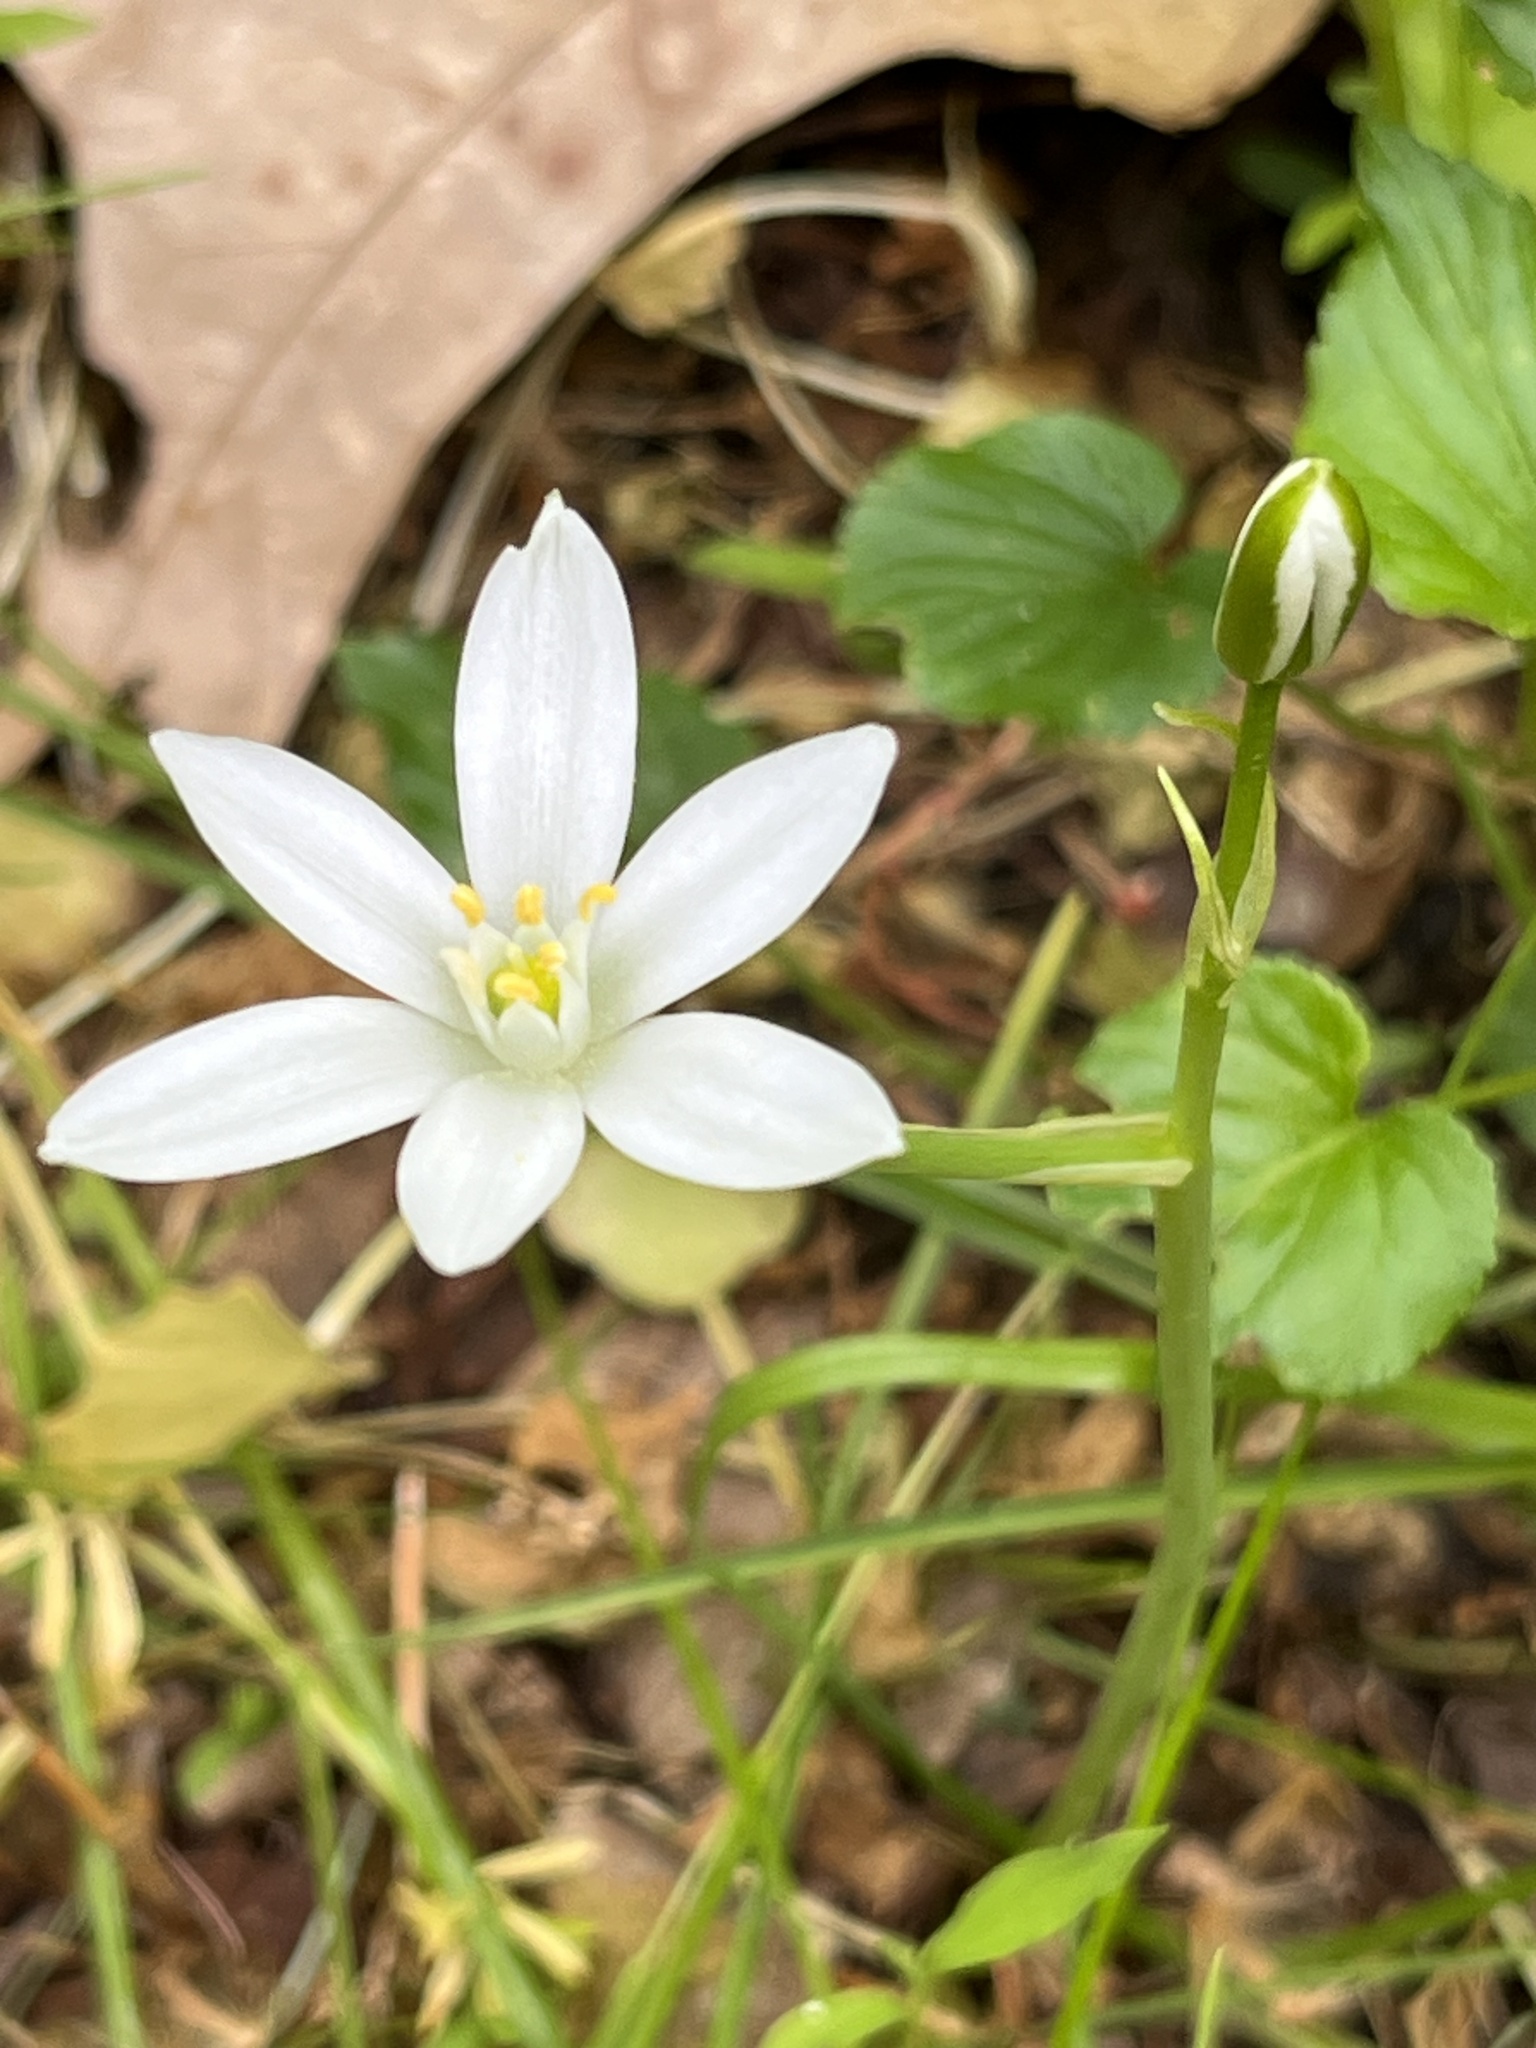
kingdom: Plantae
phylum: Tracheophyta
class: Liliopsida
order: Asparagales
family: Asparagaceae
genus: Ornithogalum
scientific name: Ornithogalum umbellatum
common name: Garden star-of-bethlehem
